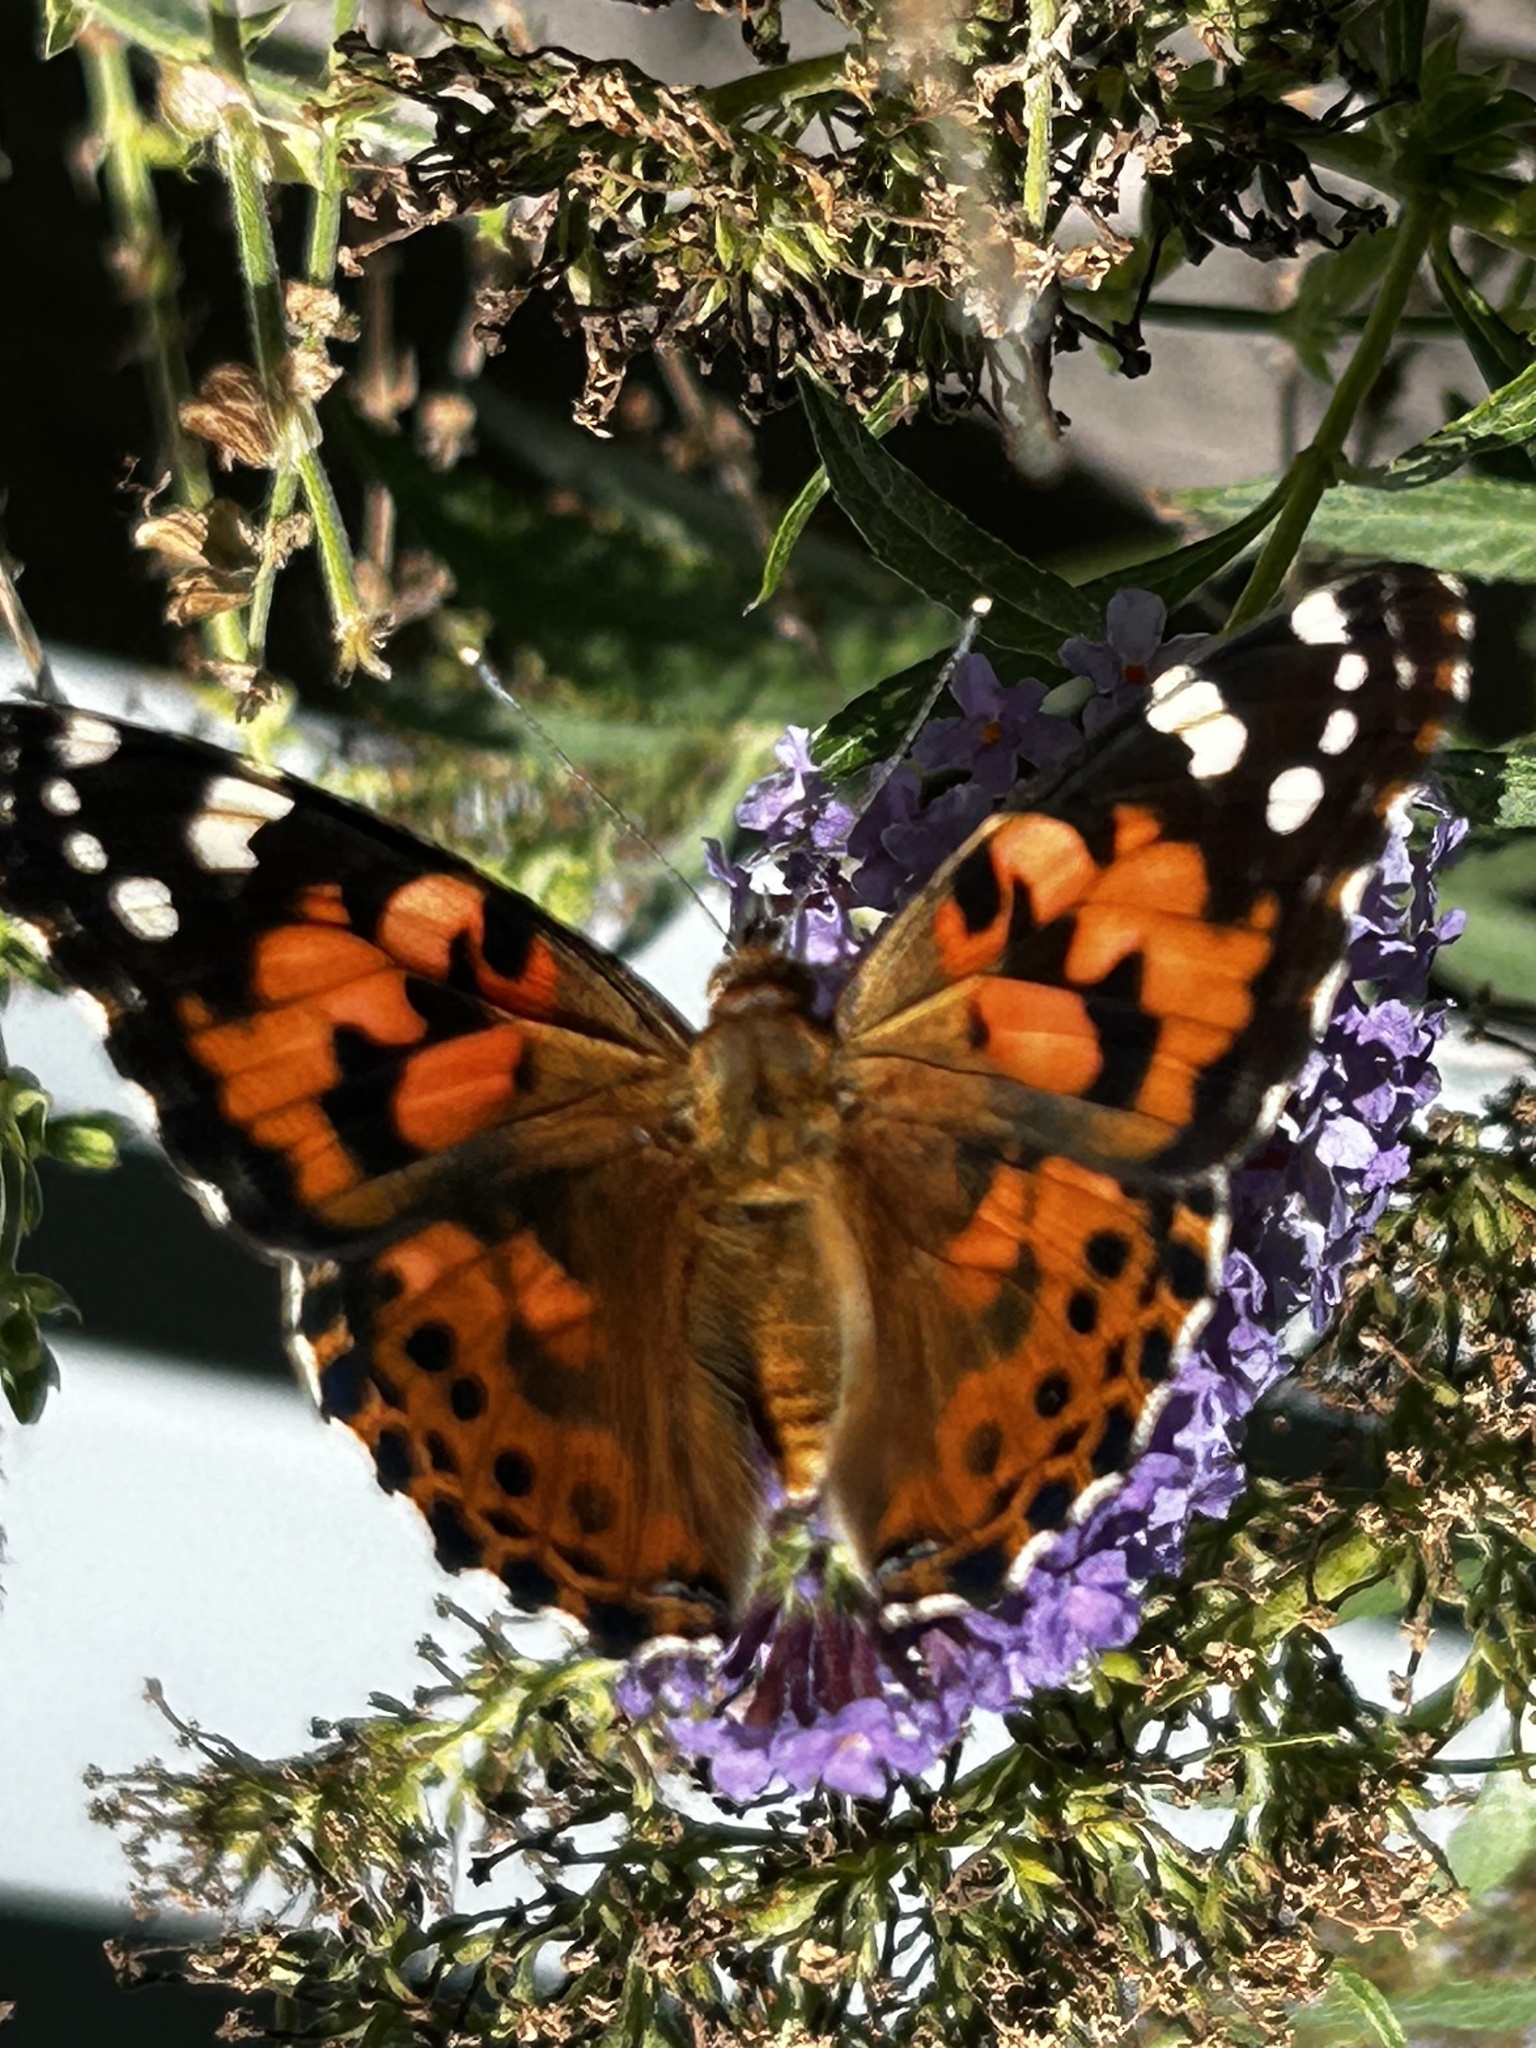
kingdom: Animalia
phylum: Arthropoda
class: Insecta
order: Lepidoptera
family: Nymphalidae
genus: Vanessa
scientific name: Vanessa cardui
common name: Painted lady
